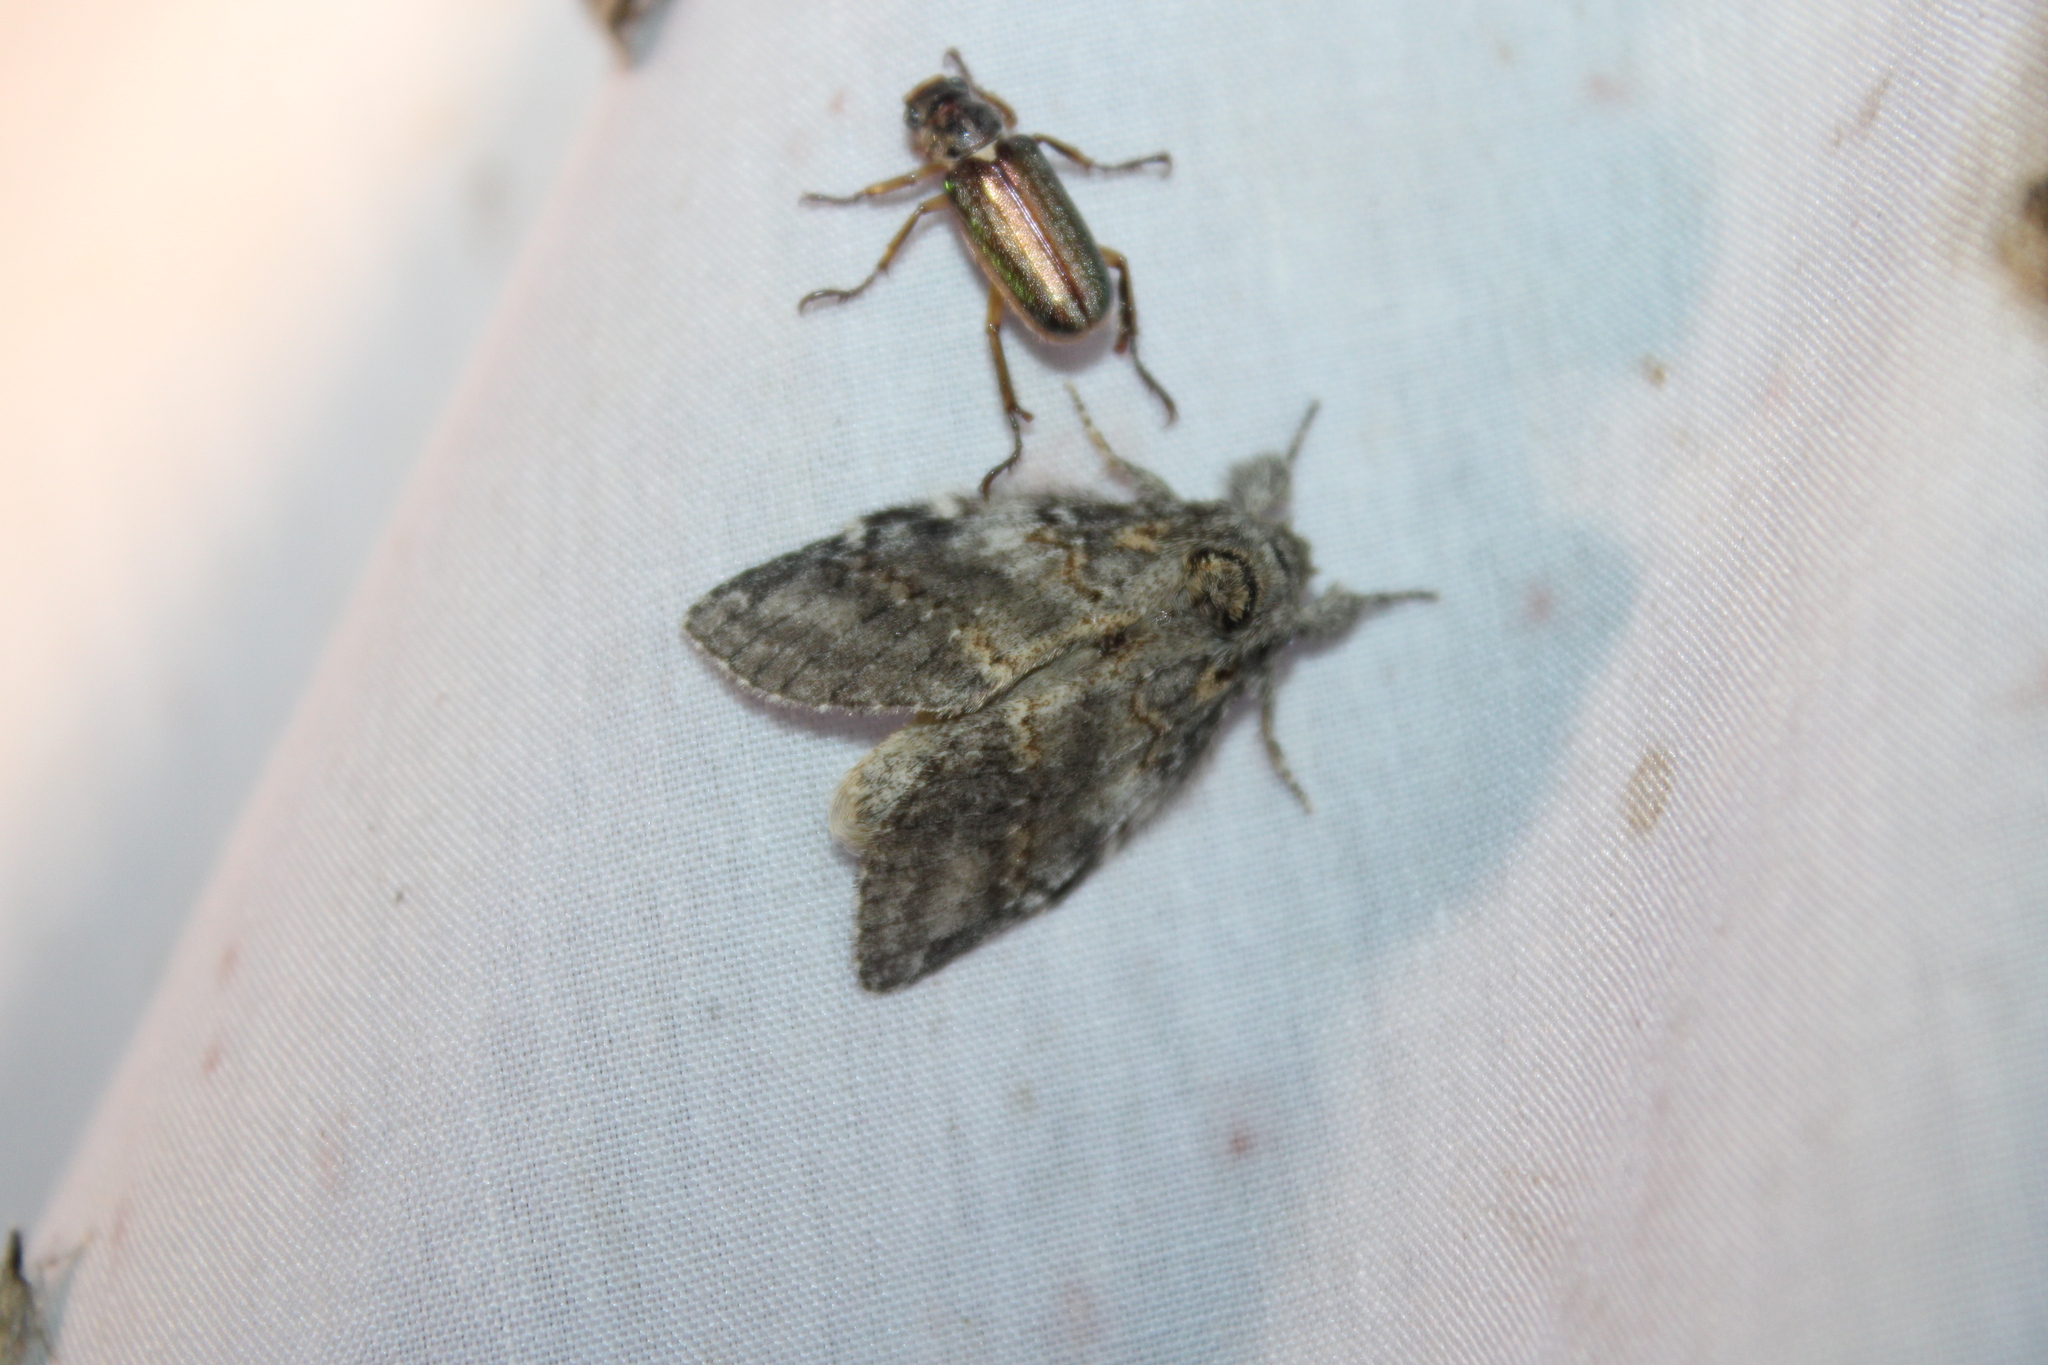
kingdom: Animalia
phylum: Arthropoda
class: Insecta
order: Lepidoptera
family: Notodontidae
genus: Peridea
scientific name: Peridea angulosa
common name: Angulose prominent
